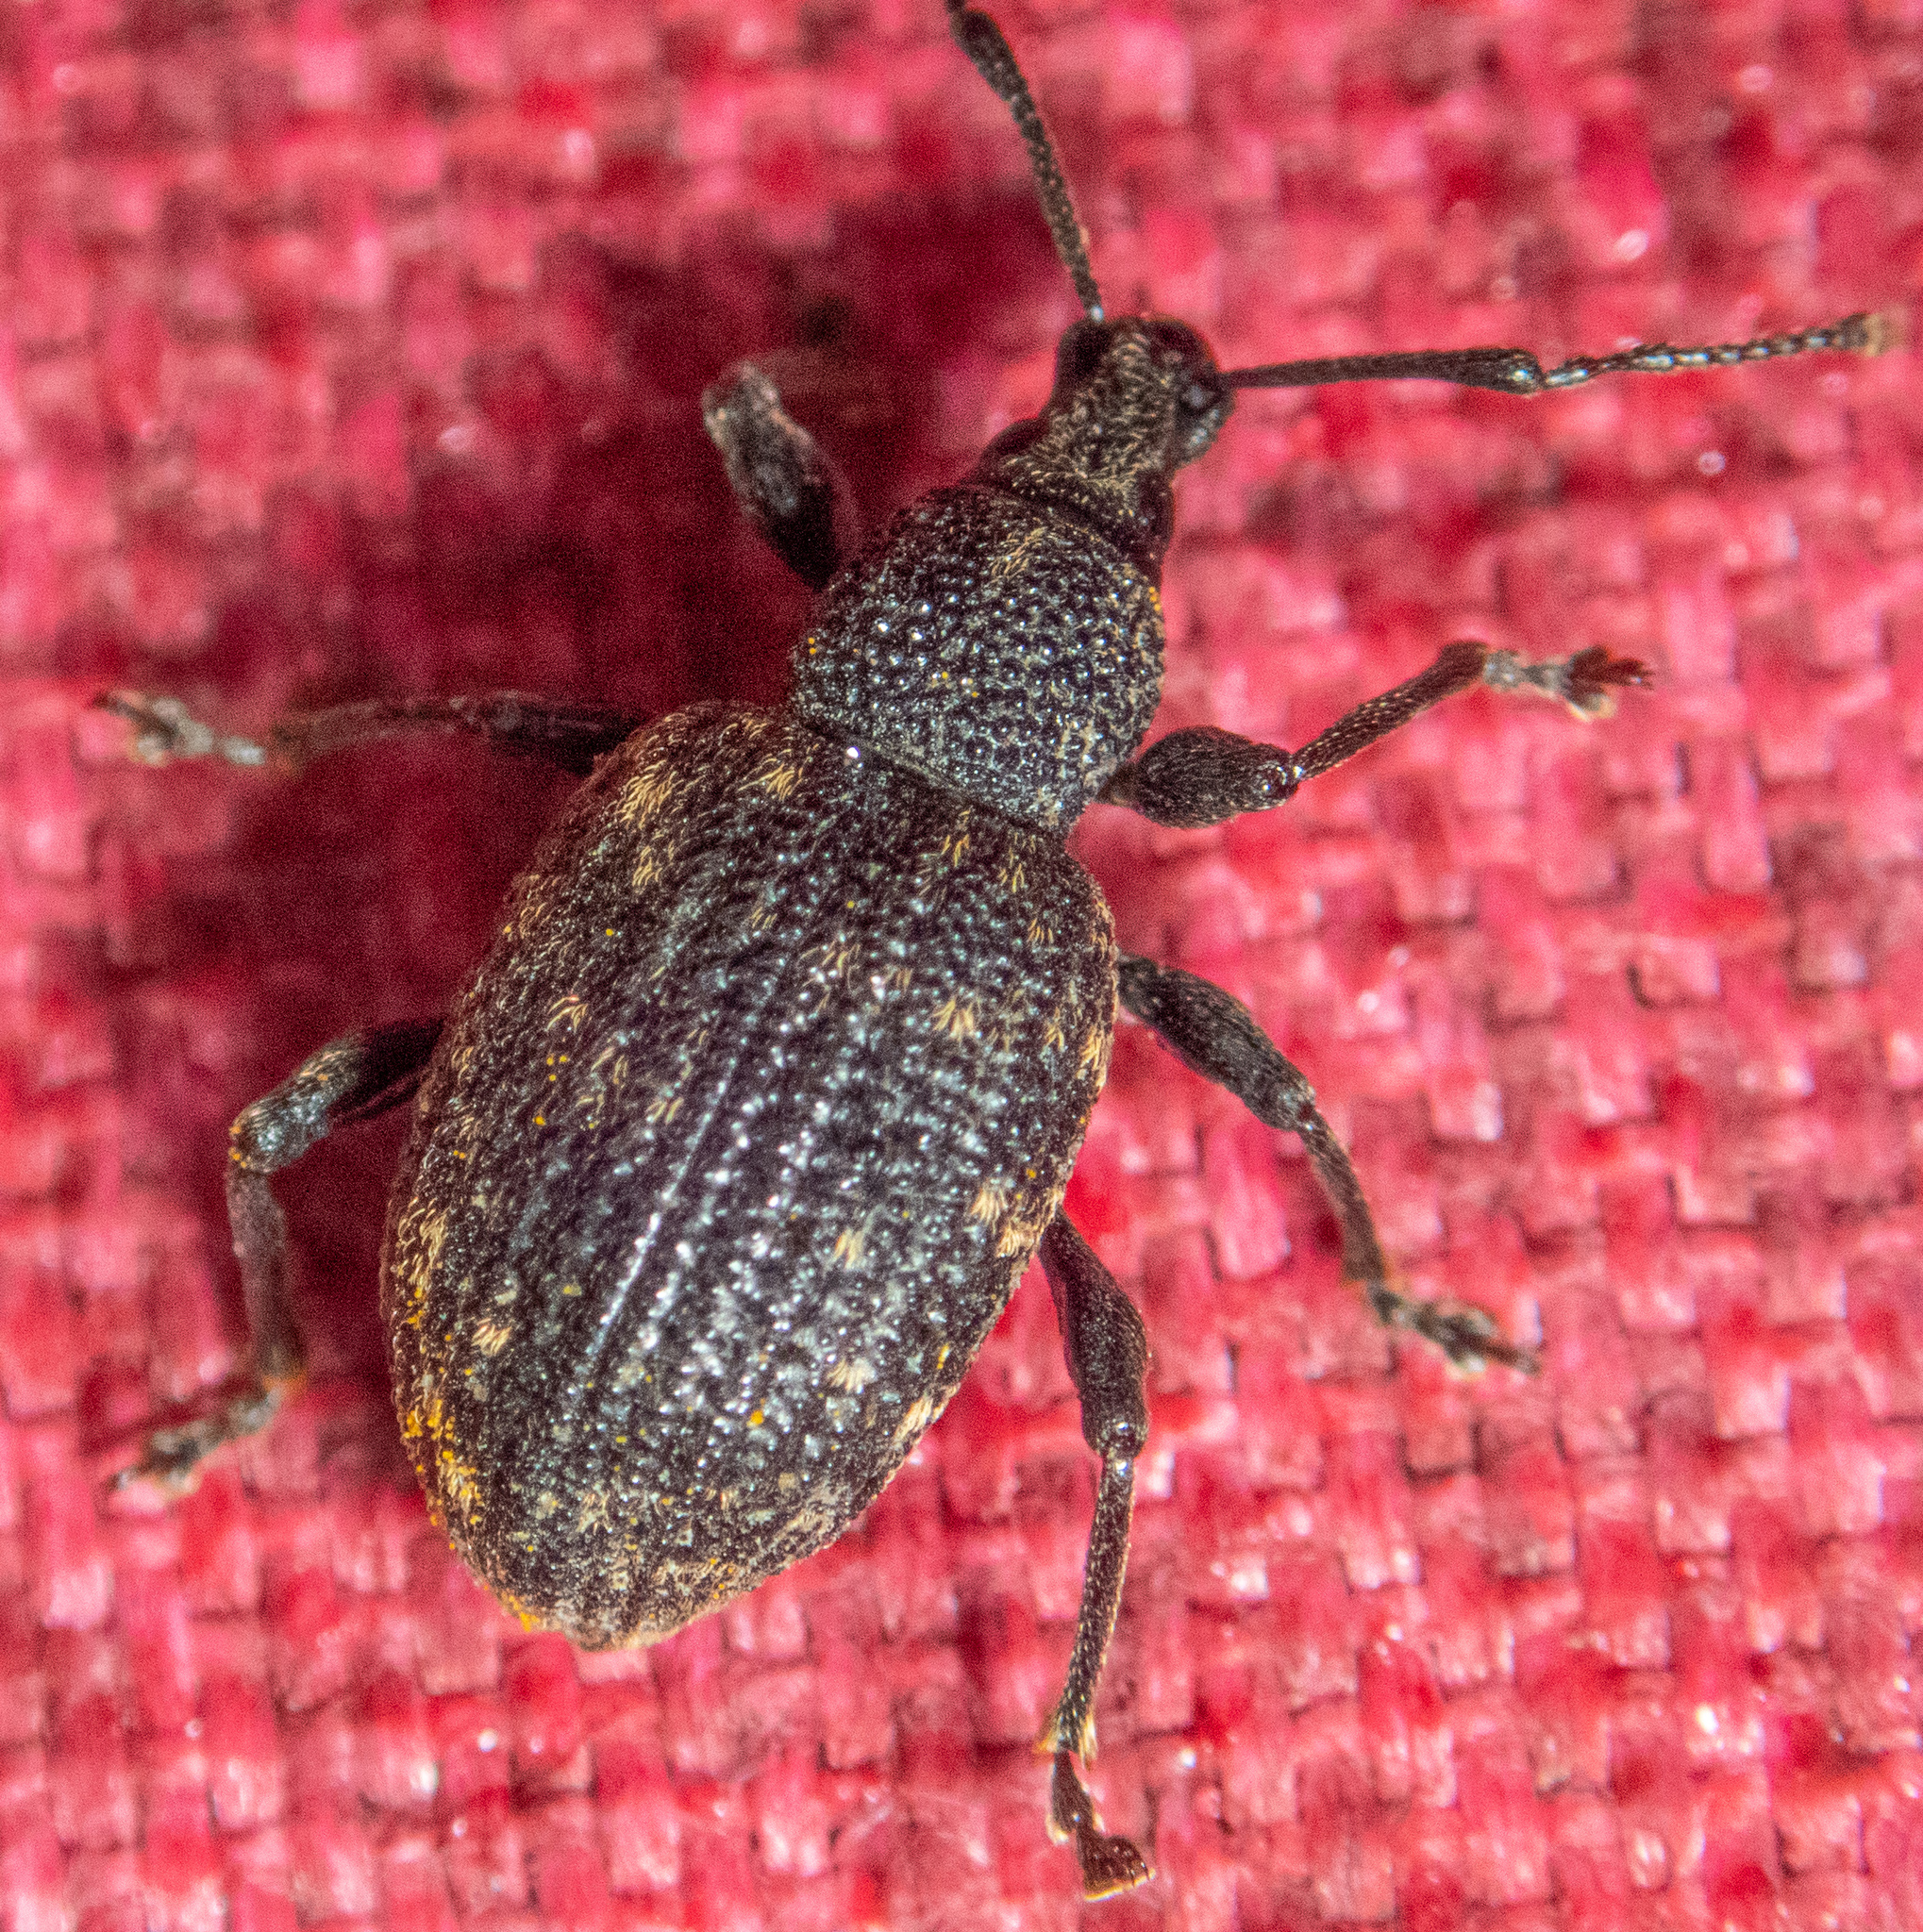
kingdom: Animalia
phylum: Arthropoda
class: Insecta
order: Coleoptera
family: Curculionidae
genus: Otiorhynchus
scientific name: Otiorhynchus sulcatus
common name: Black vine weevil
